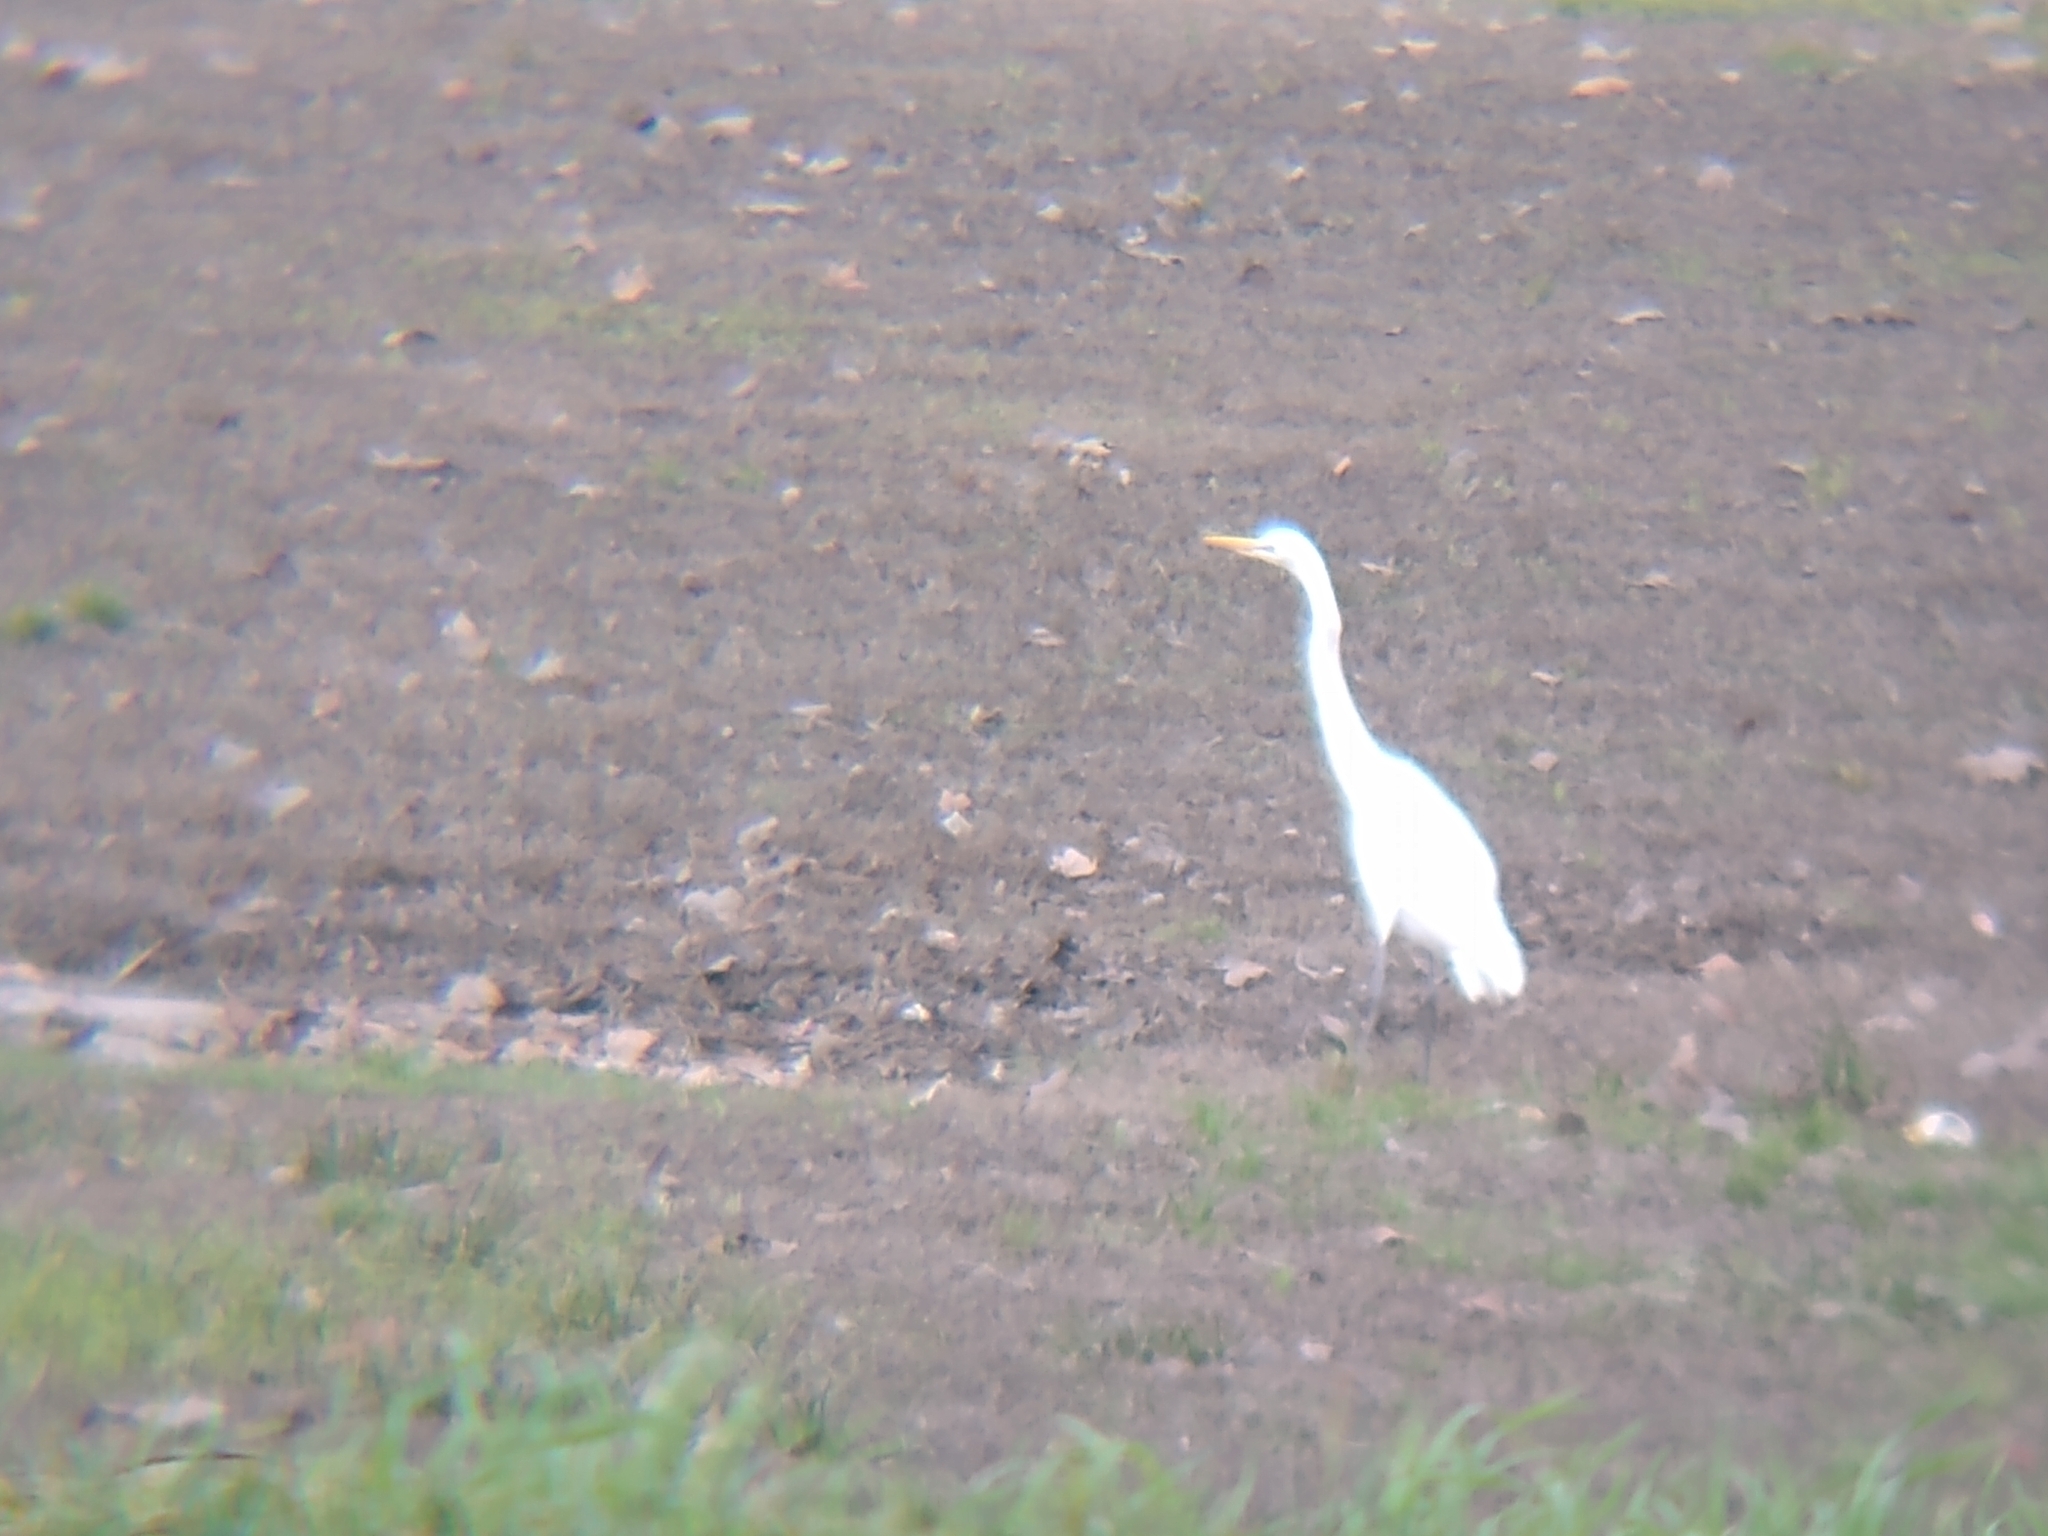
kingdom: Animalia
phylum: Chordata
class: Aves
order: Pelecaniformes
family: Ardeidae
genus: Ardea
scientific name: Ardea alba
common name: Great egret
